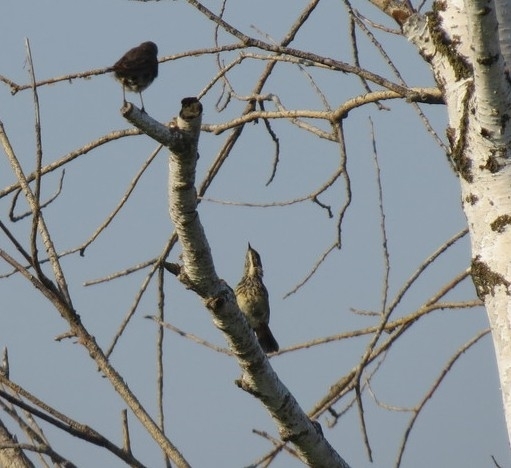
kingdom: Animalia
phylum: Chordata
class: Aves
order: Passeriformes
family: Muscicapidae
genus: Luscinia
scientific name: Luscinia svecica
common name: Bluethroat
